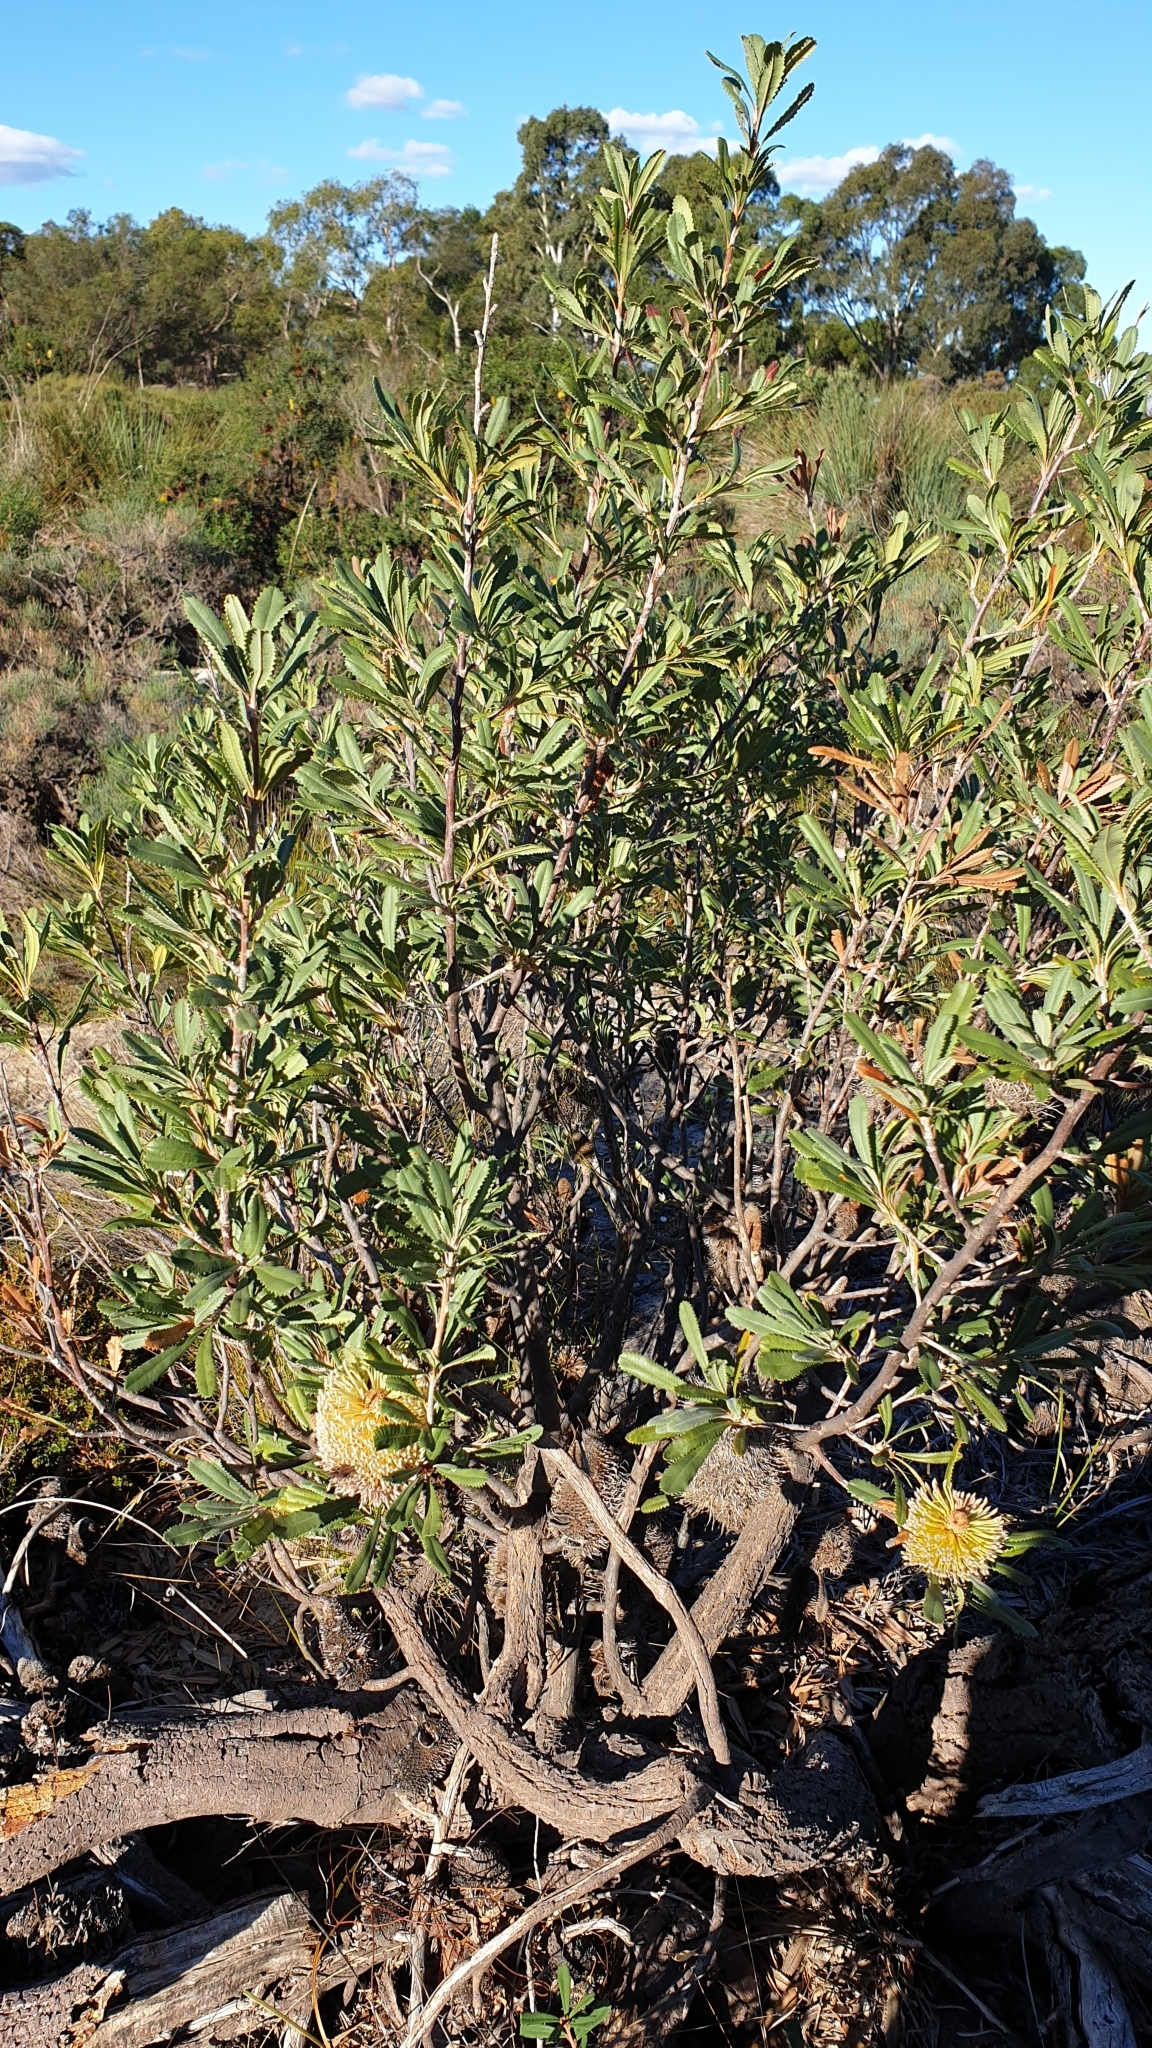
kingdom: Plantae
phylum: Tracheophyta
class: Magnoliopsida
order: Proteales
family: Proteaceae
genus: Banksia
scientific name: Banksia ornata
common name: Desert banksia
